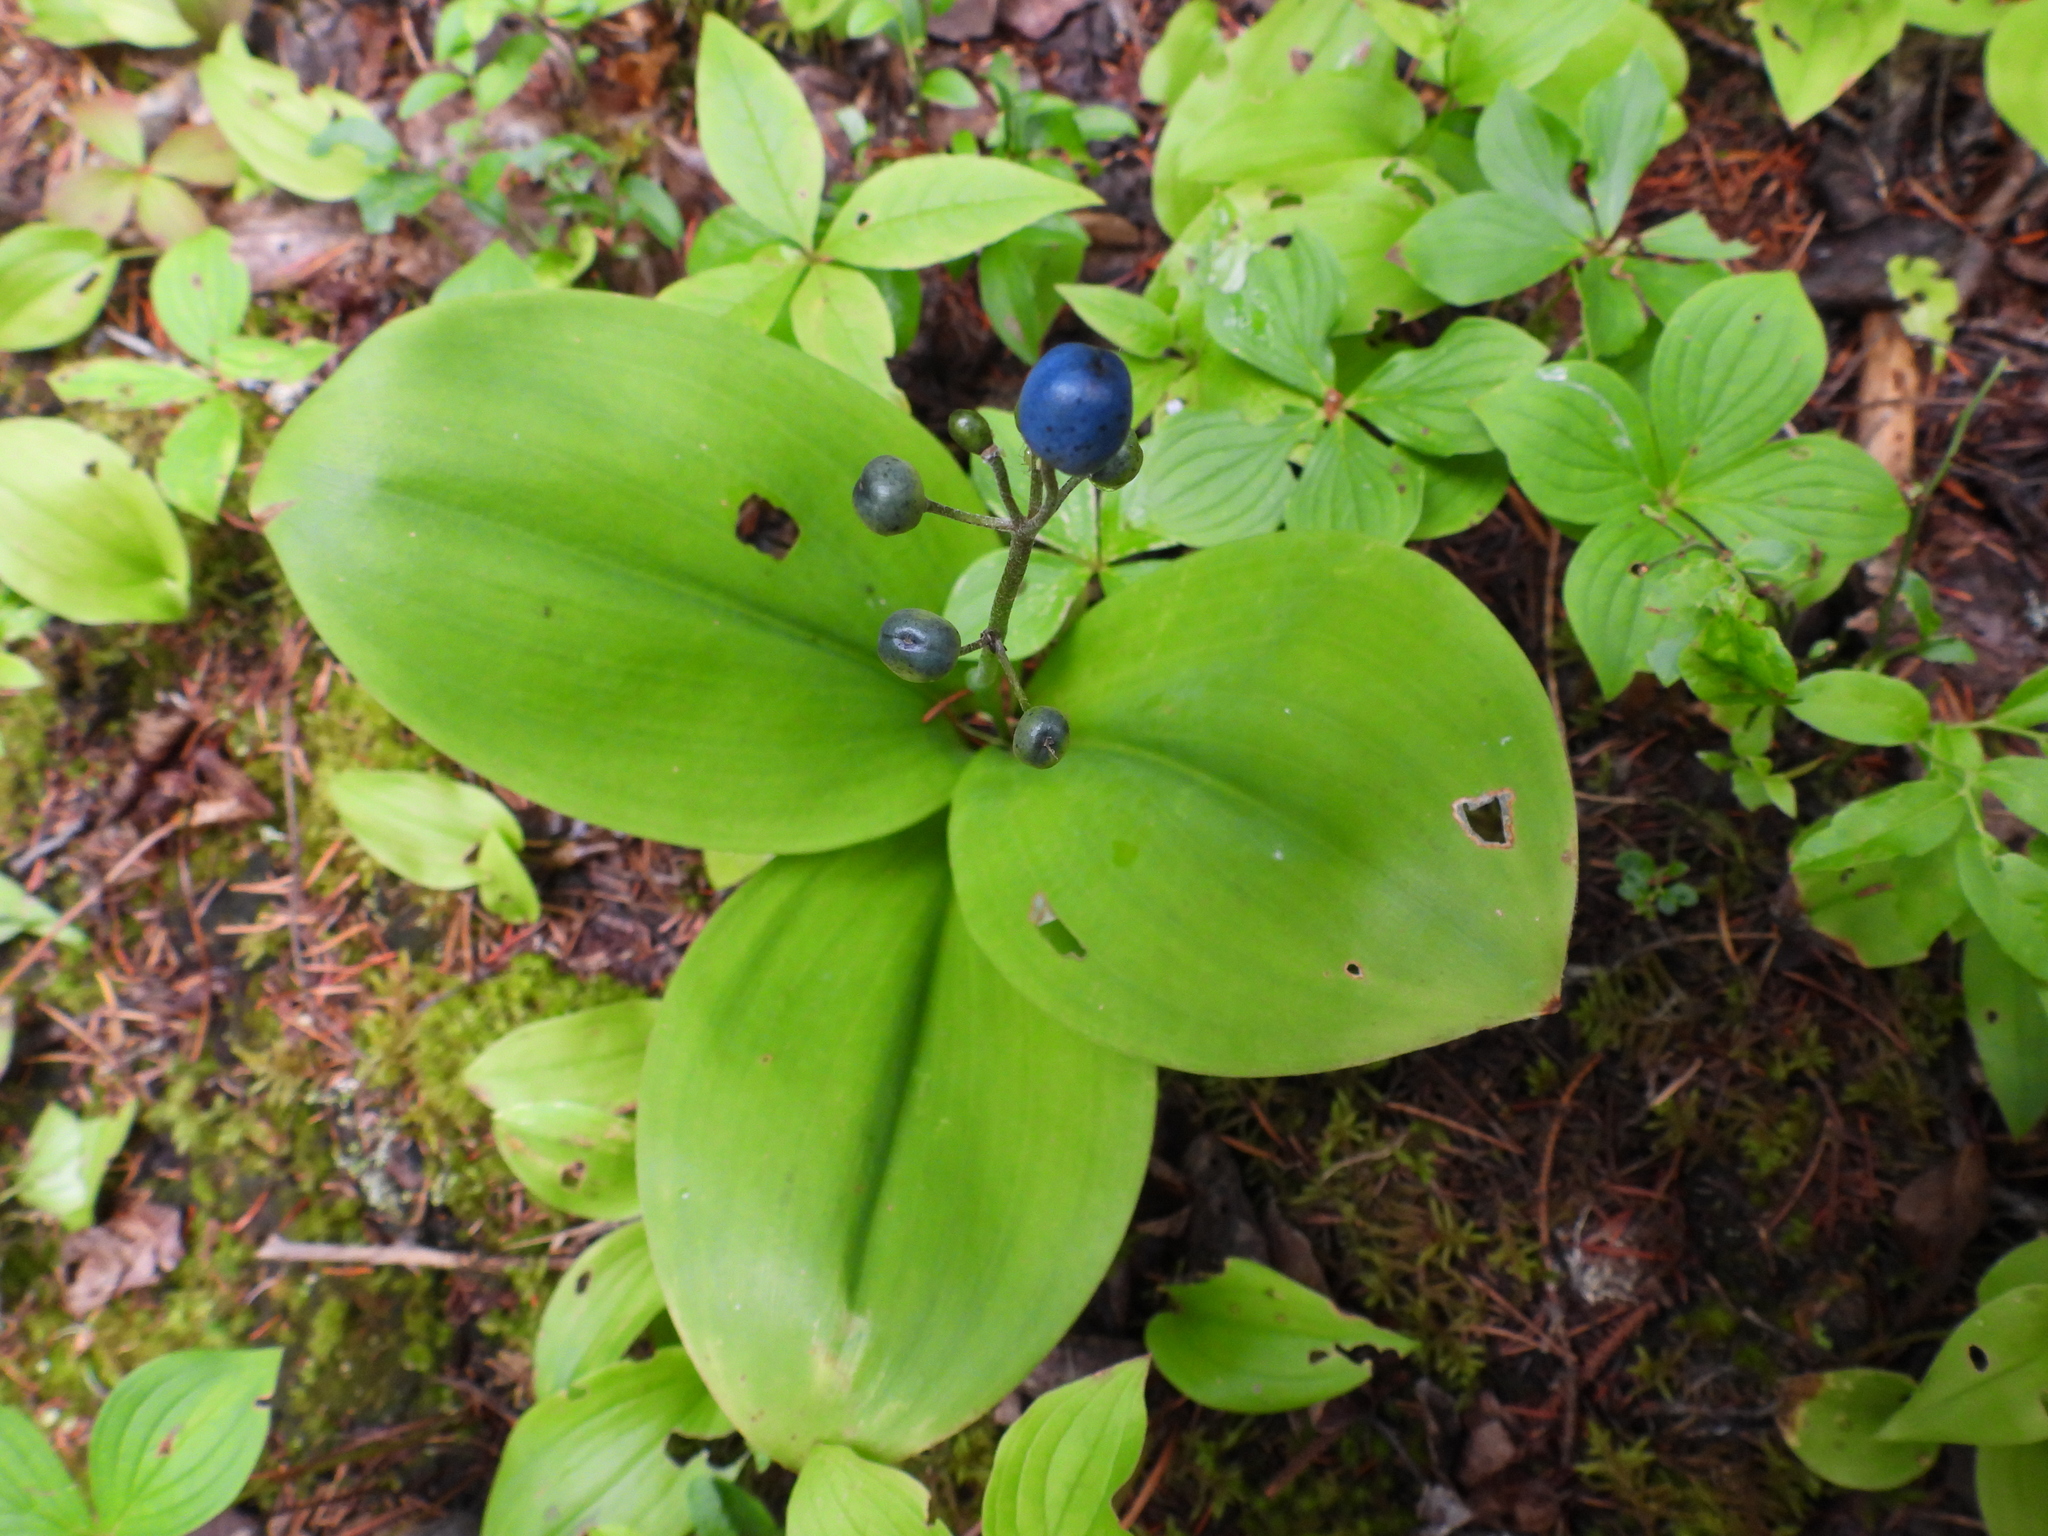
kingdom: Plantae
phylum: Tracheophyta
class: Liliopsida
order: Liliales
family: Liliaceae
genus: Clintonia
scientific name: Clintonia borealis
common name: Yellow clintonia
